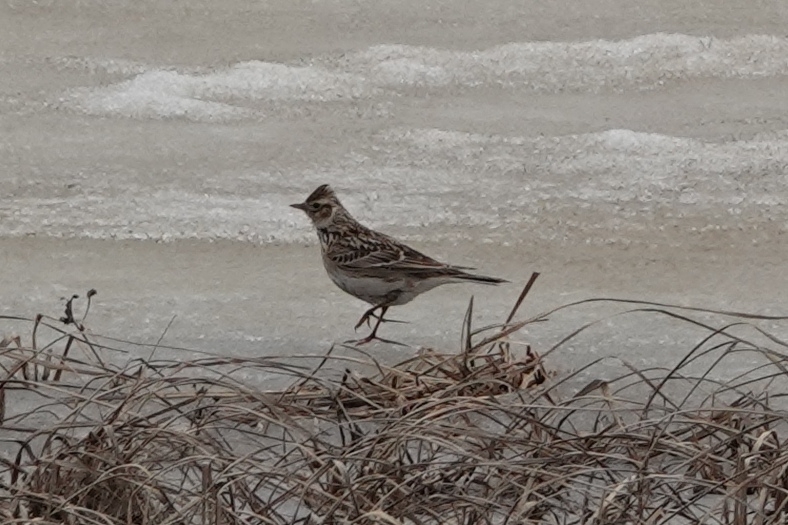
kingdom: Animalia
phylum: Chordata
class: Aves
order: Passeriformes
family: Alaudidae
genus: Alauda
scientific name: Alauda arvensis
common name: Eurasian skylark
